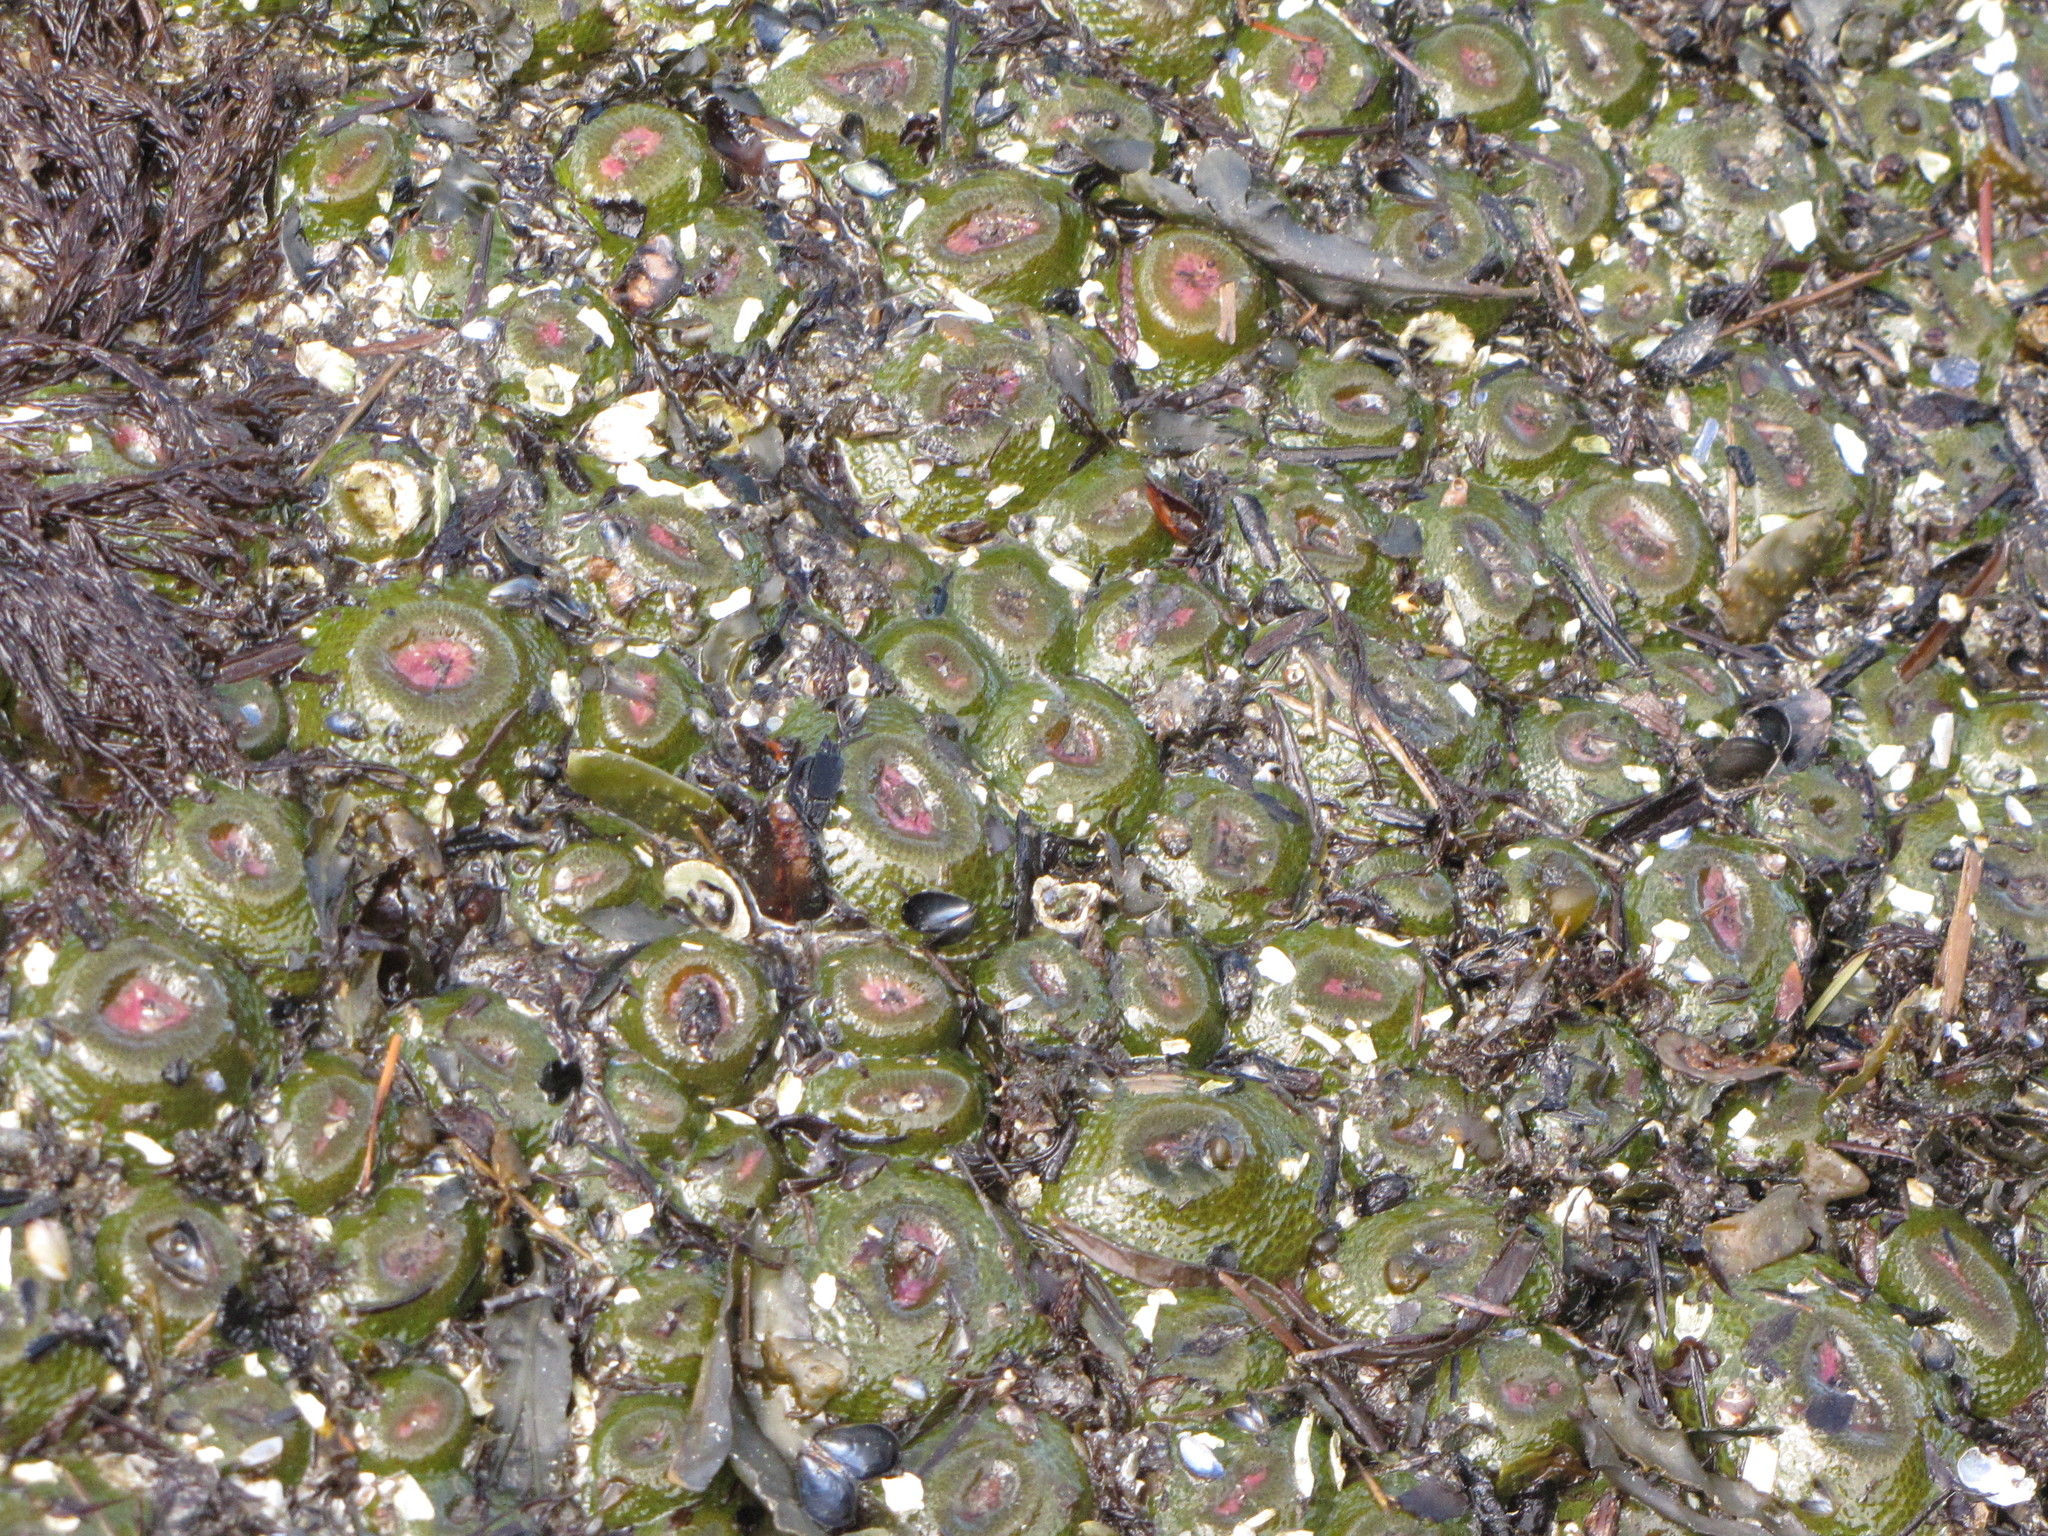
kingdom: Animalia
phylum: Cnidaria
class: Anthozoa
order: Actiniaria
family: Actiniidae
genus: Anthopleura
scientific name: Anthopleura elegantissima
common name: Clonal anemone
